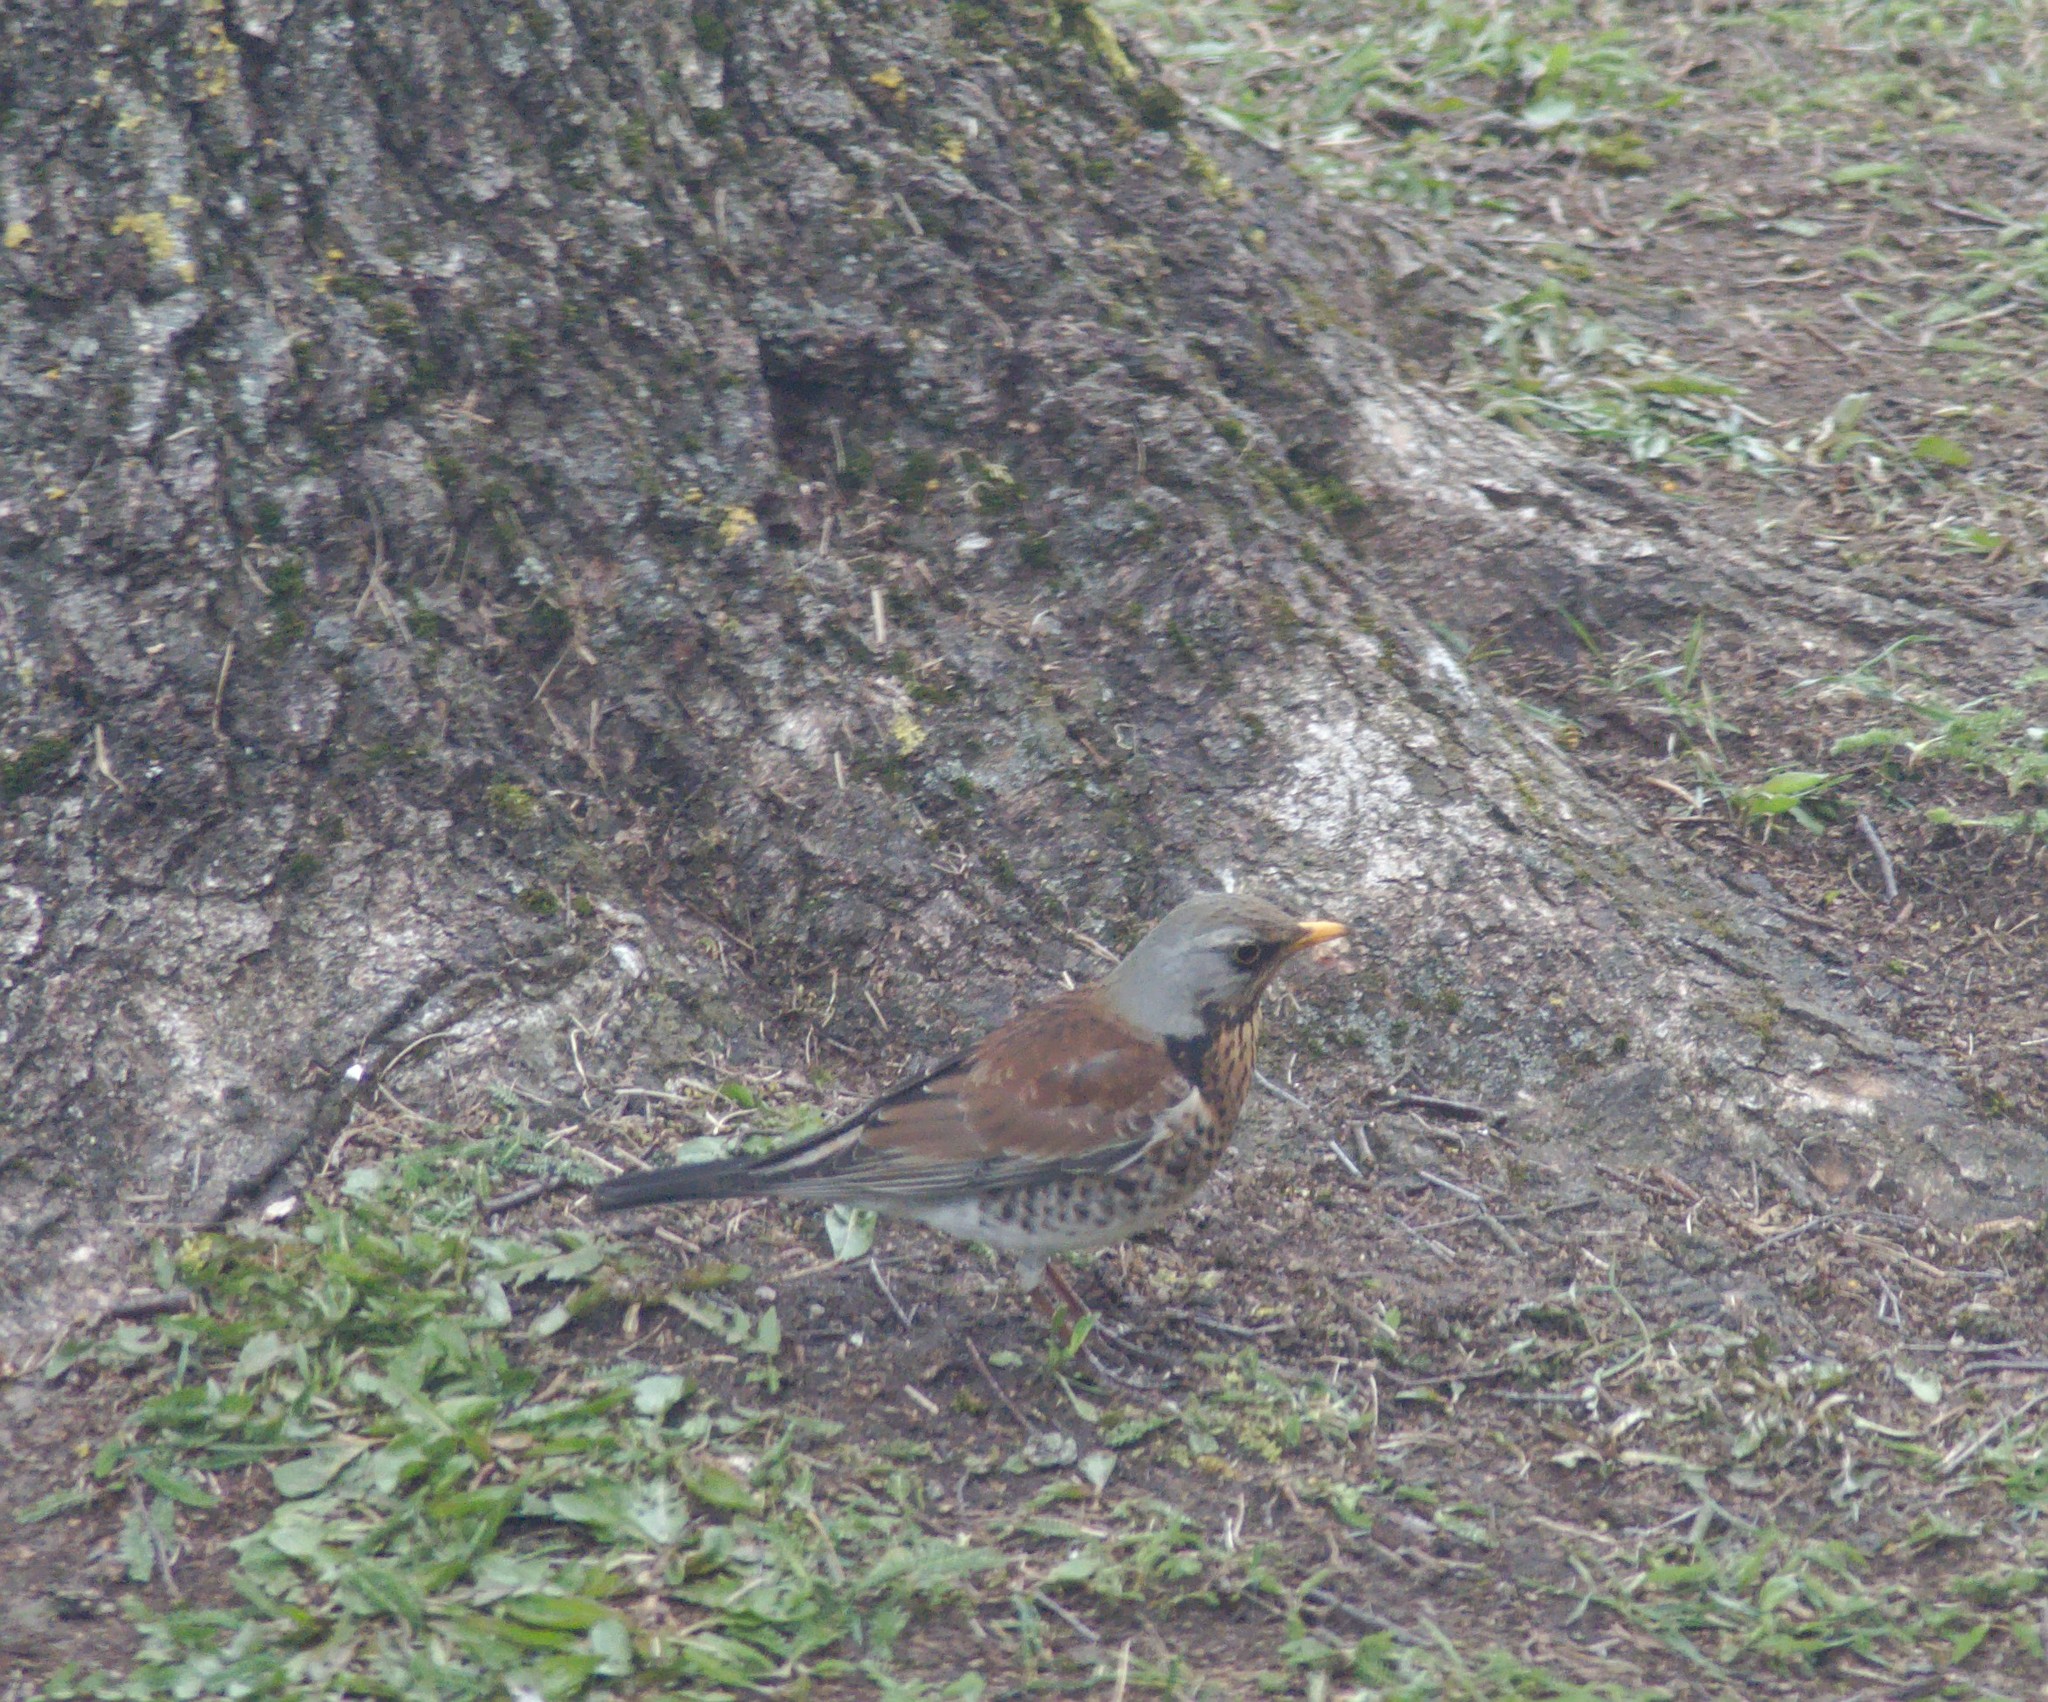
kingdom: Animalia
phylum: Chordata
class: Aves
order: Passeriformes
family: Turdidae
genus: Turdus
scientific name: Turdus pilaris
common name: Fieldfare
